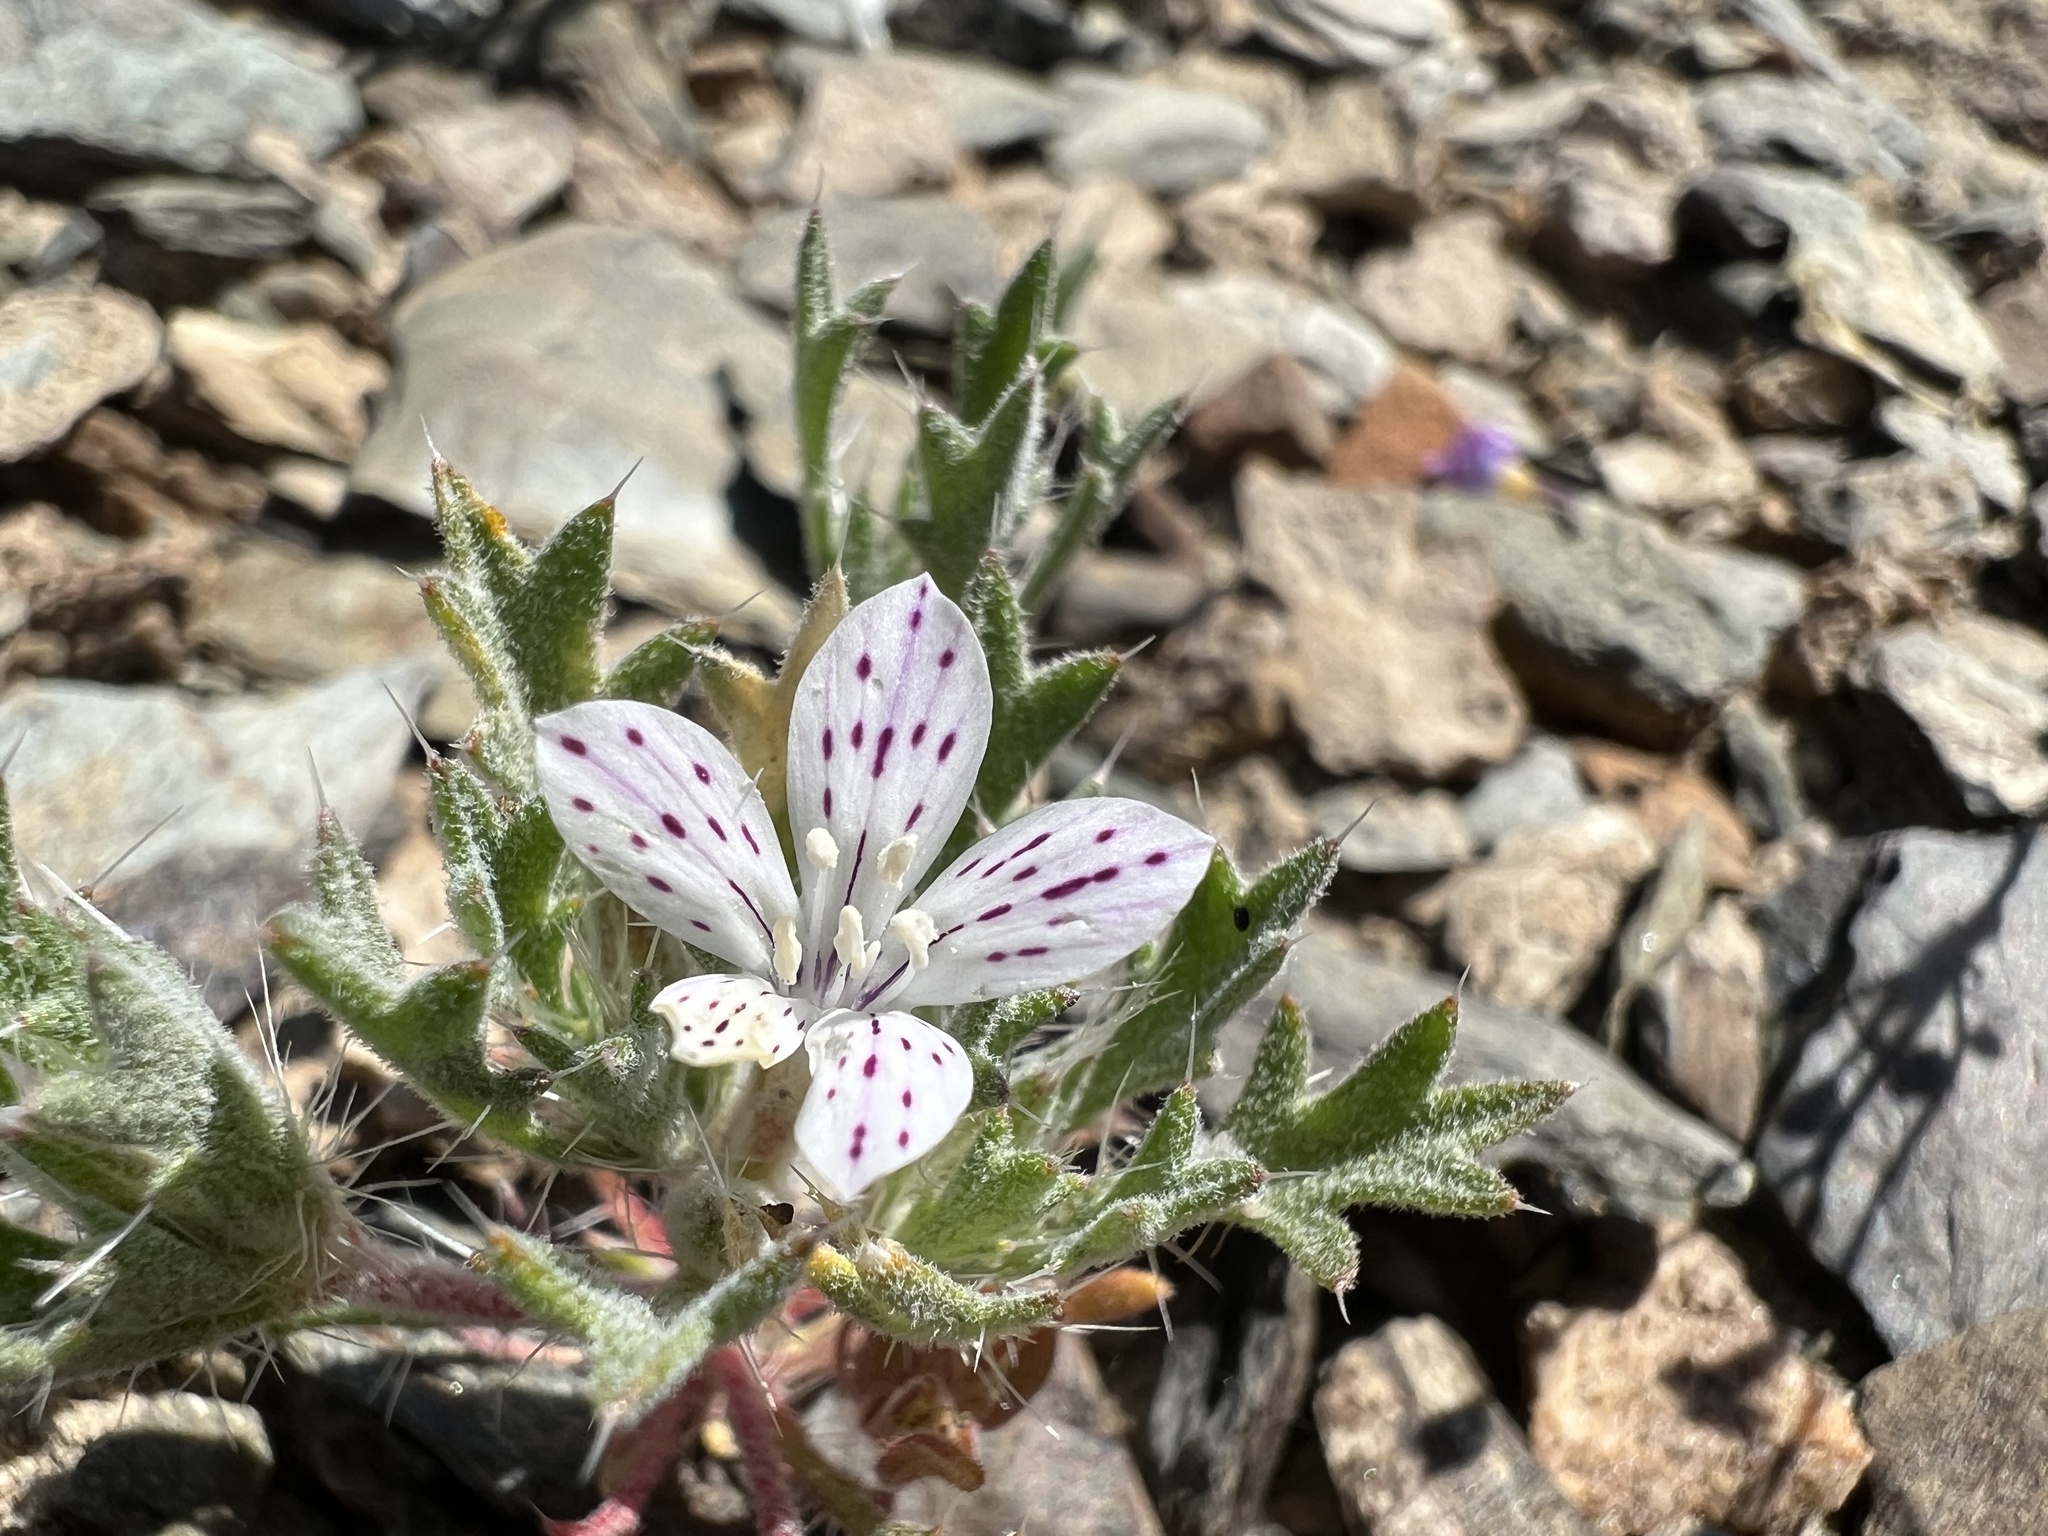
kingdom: Plantae
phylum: Tracheophyta
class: Magnoliopsida
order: Ericales
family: Polemoniaceae
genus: Langloisia
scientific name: Langloisia setosissima
